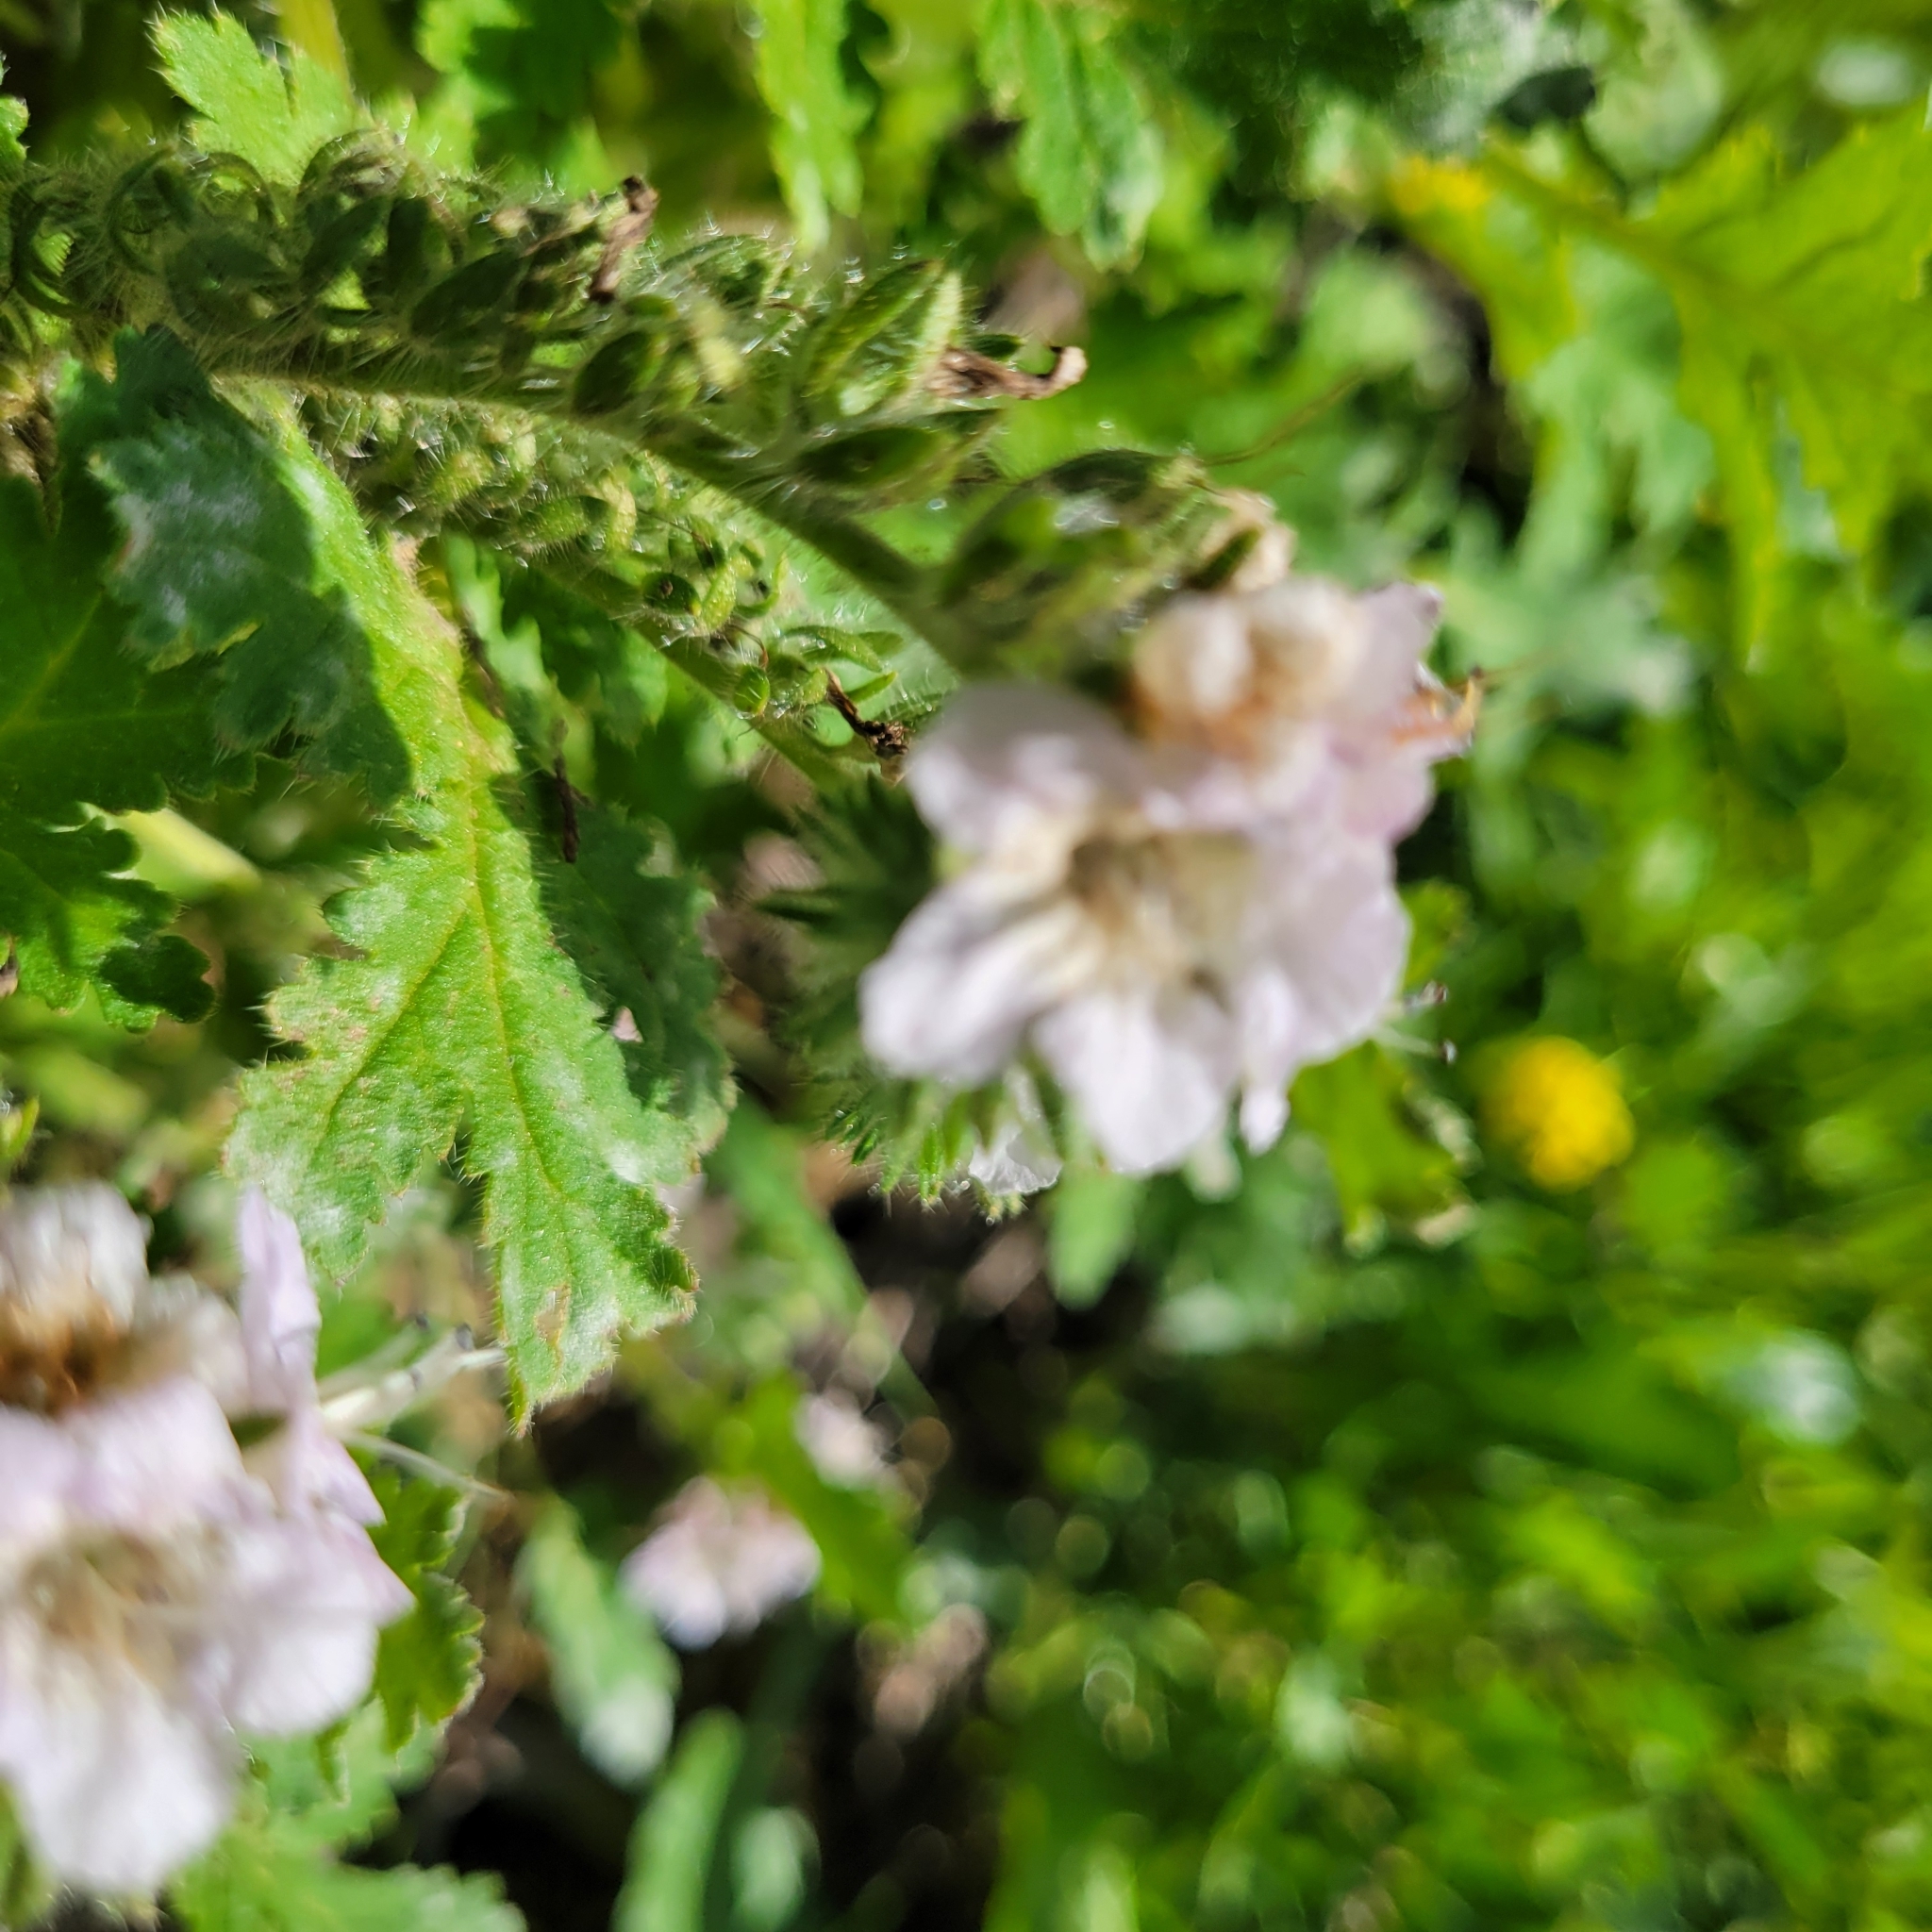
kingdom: Plantae
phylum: Tracheophyta
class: Magnoliopsida
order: Boraginales
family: Hydrophyllaceae
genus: Phacelia
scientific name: Phacelia cicutaria
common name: Caterpillar phacelia
